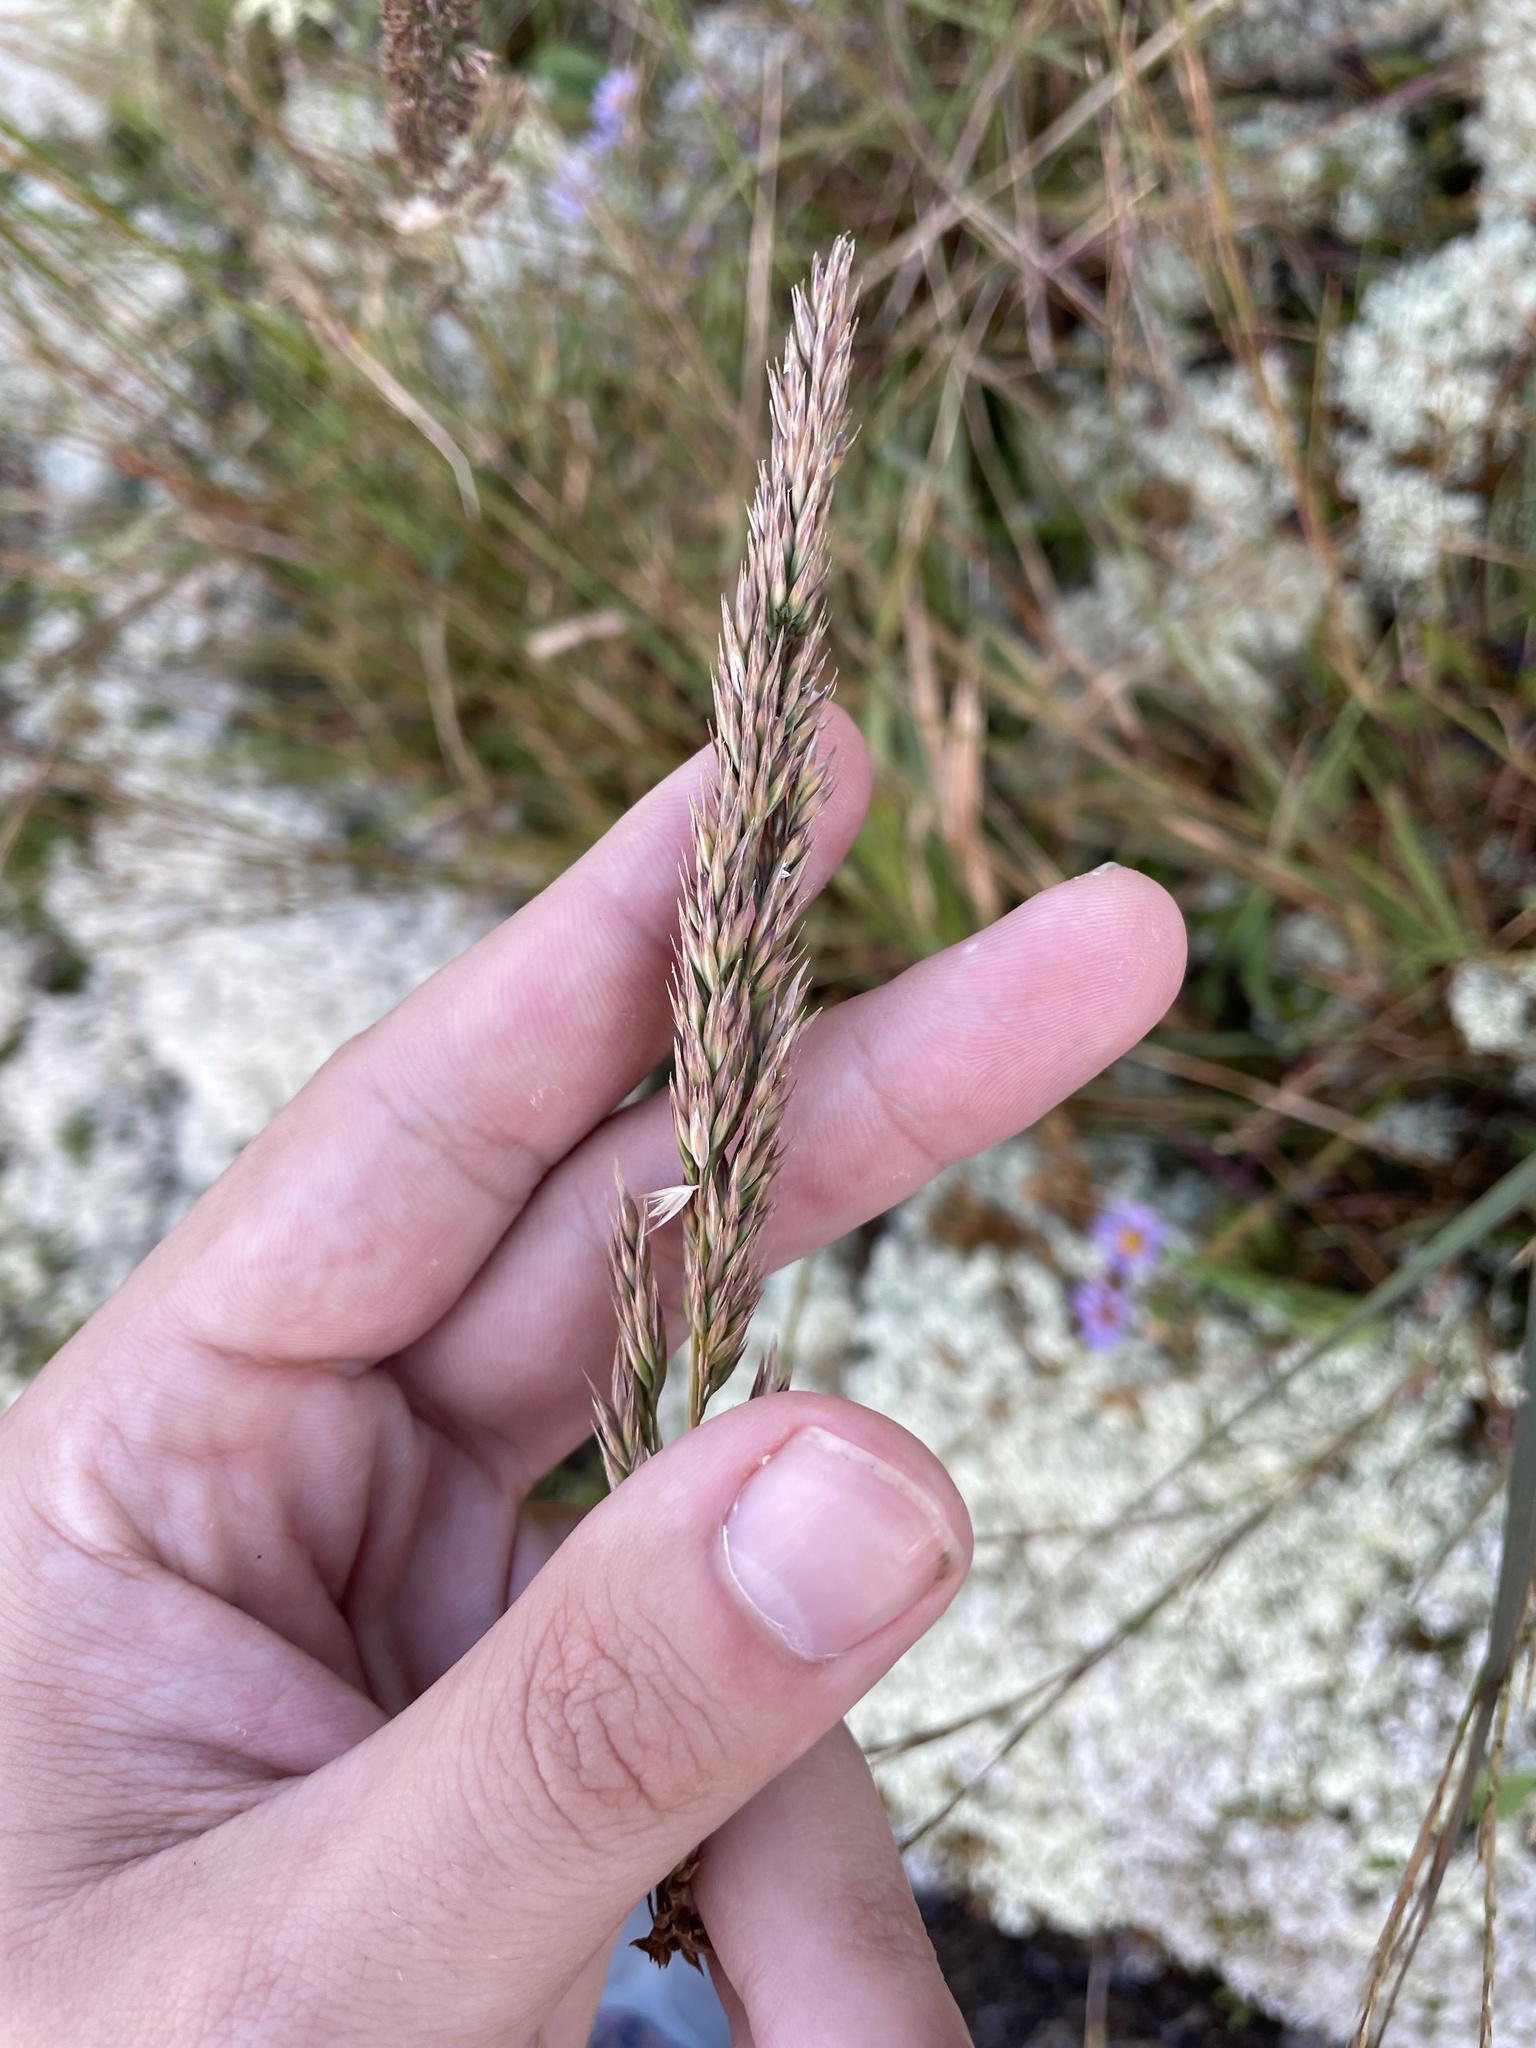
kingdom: Plantae
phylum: Tracheophyta
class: Liliopsida
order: Poales
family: Poaceae
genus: Greeneochloa
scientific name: Greeneochloa coarctata
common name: Small reedgrass
